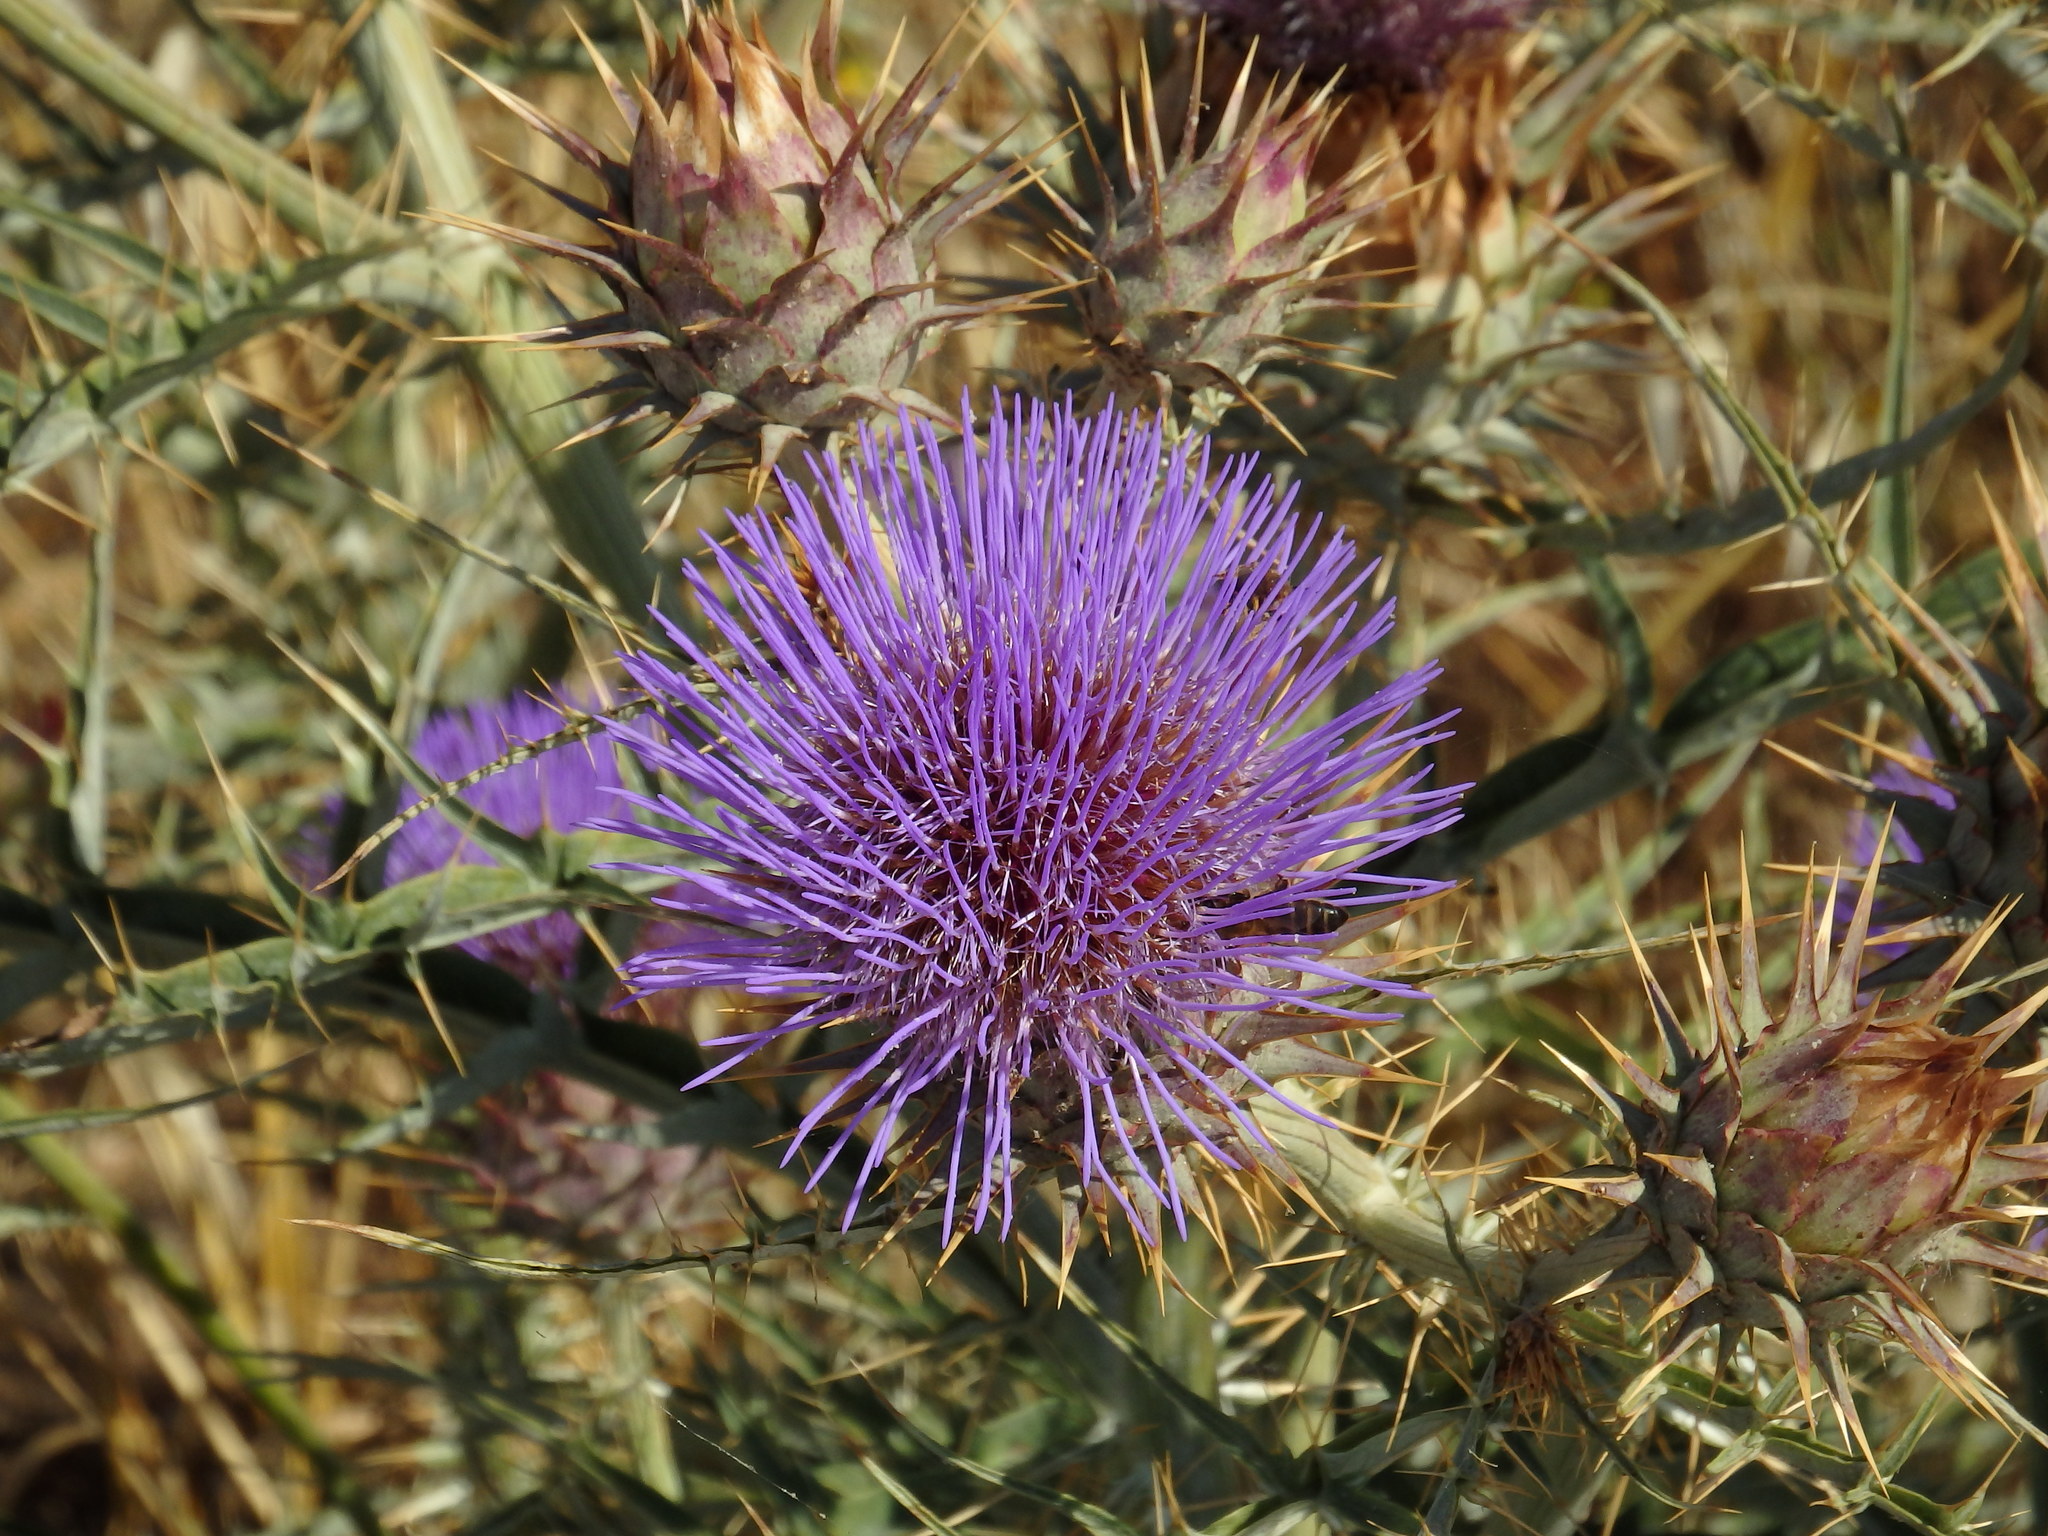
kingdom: Plantae
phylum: Tracheophyta
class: Magnoliopsida
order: Asterales
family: Asteraceae
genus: Cynara
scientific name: Cynara cardunculus
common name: Globe artichoke
